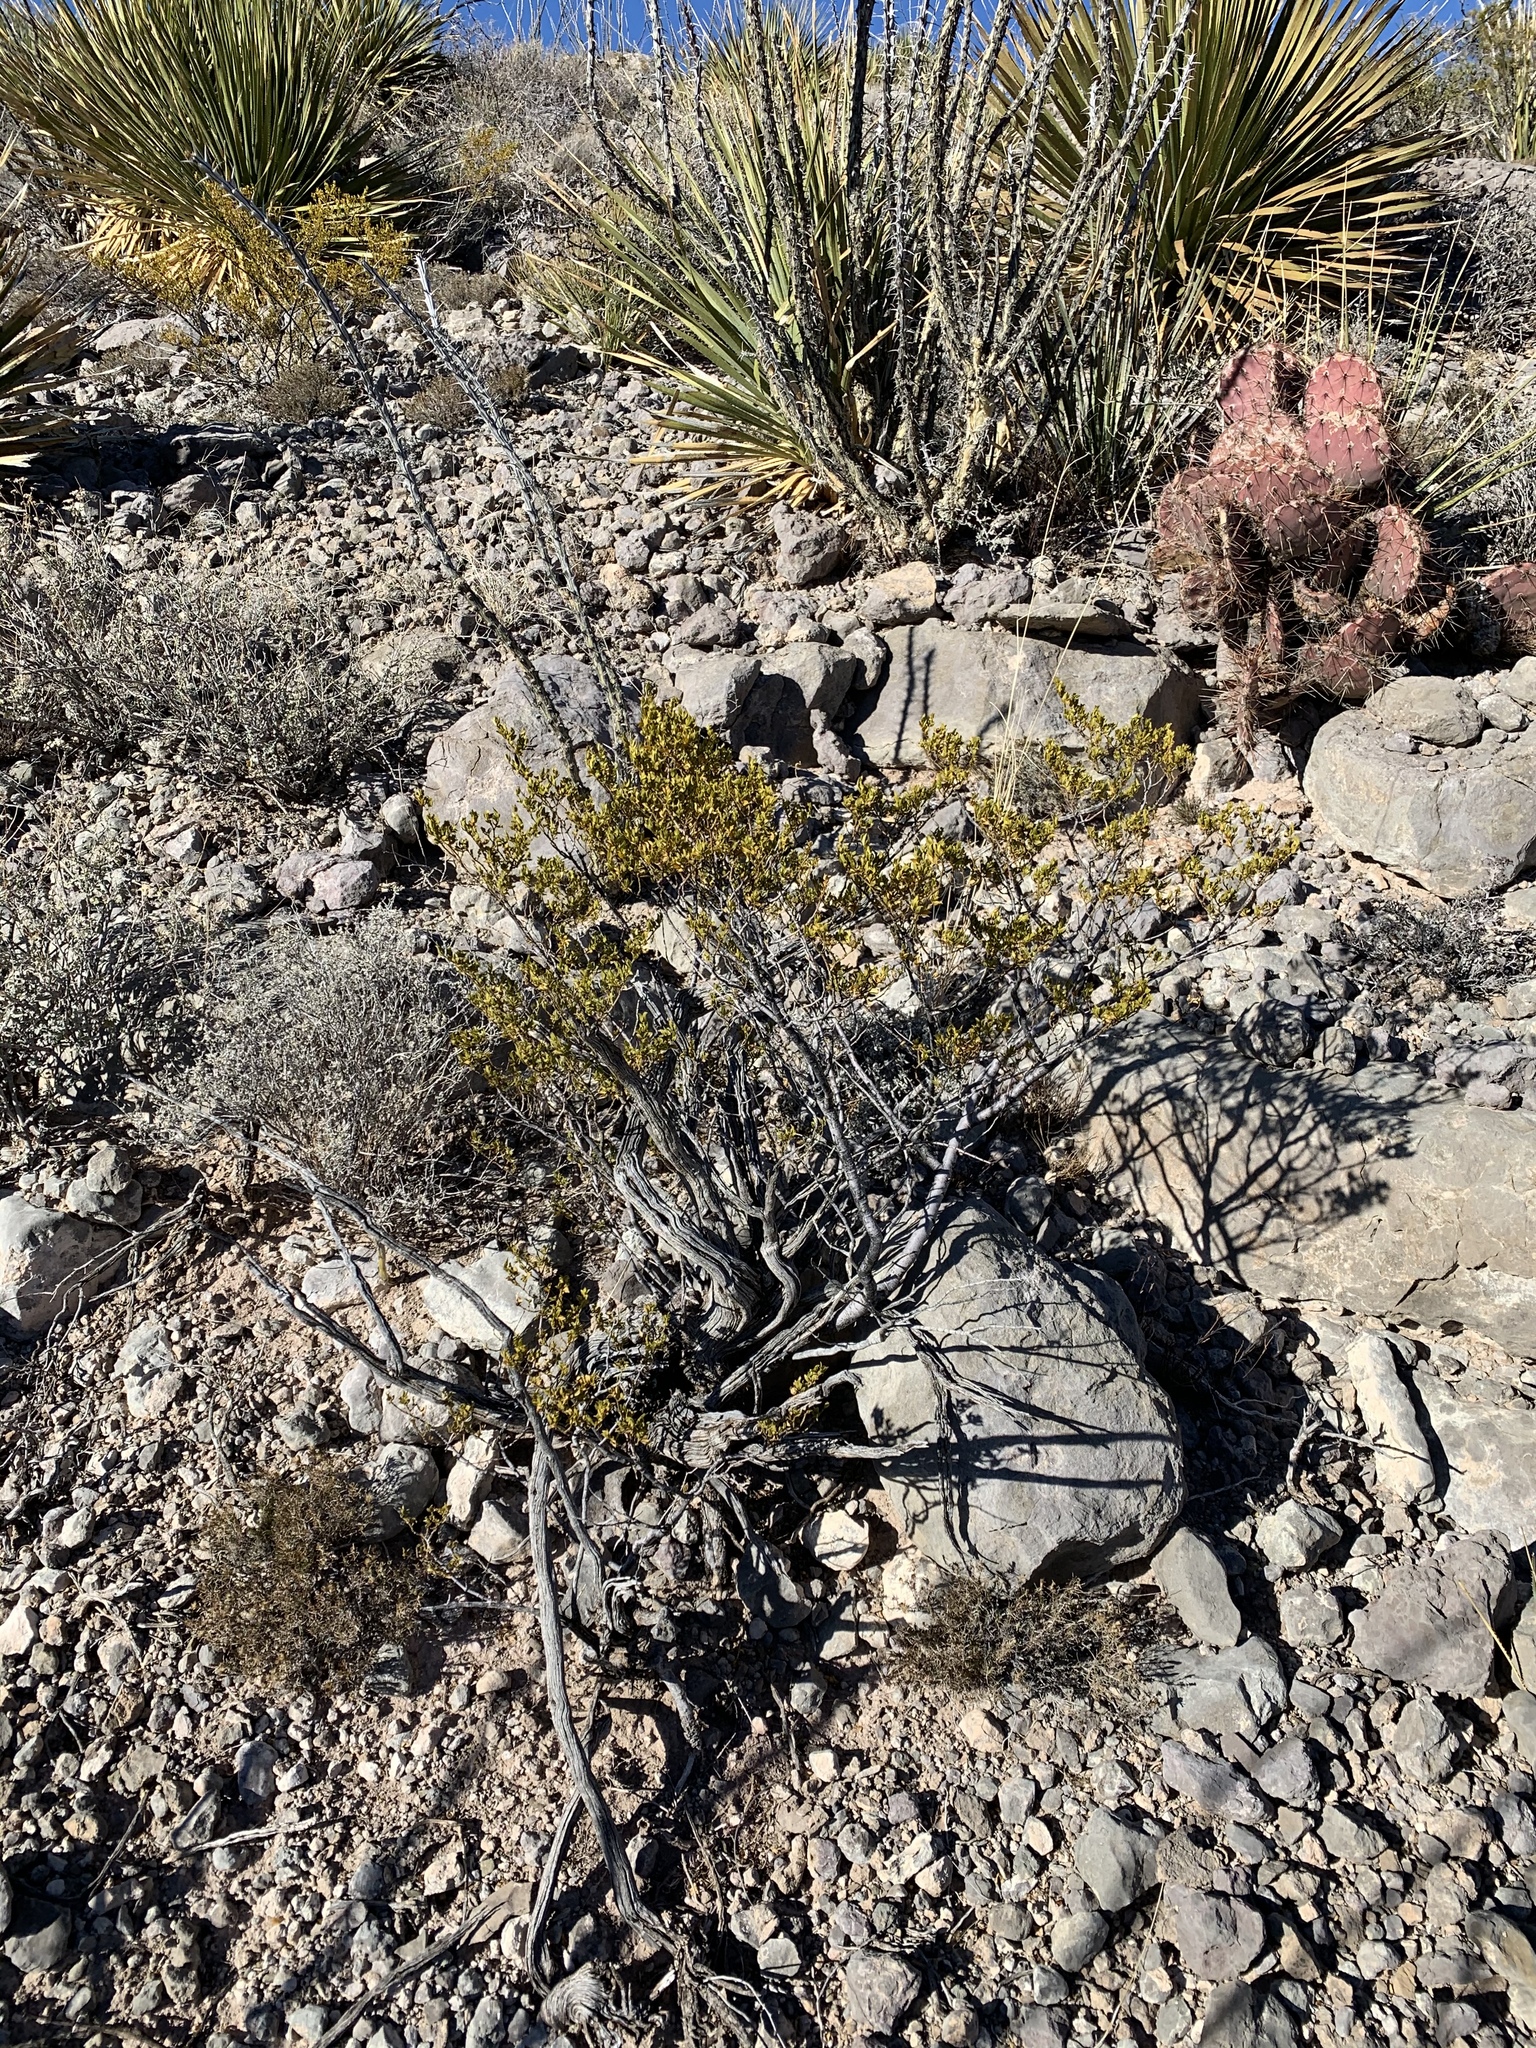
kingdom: Plantae
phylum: Tracheophyta
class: Magnoliopsida
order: Zygophyllales
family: Zygophyllaceae
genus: Larrea
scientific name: Larrea tridentata
